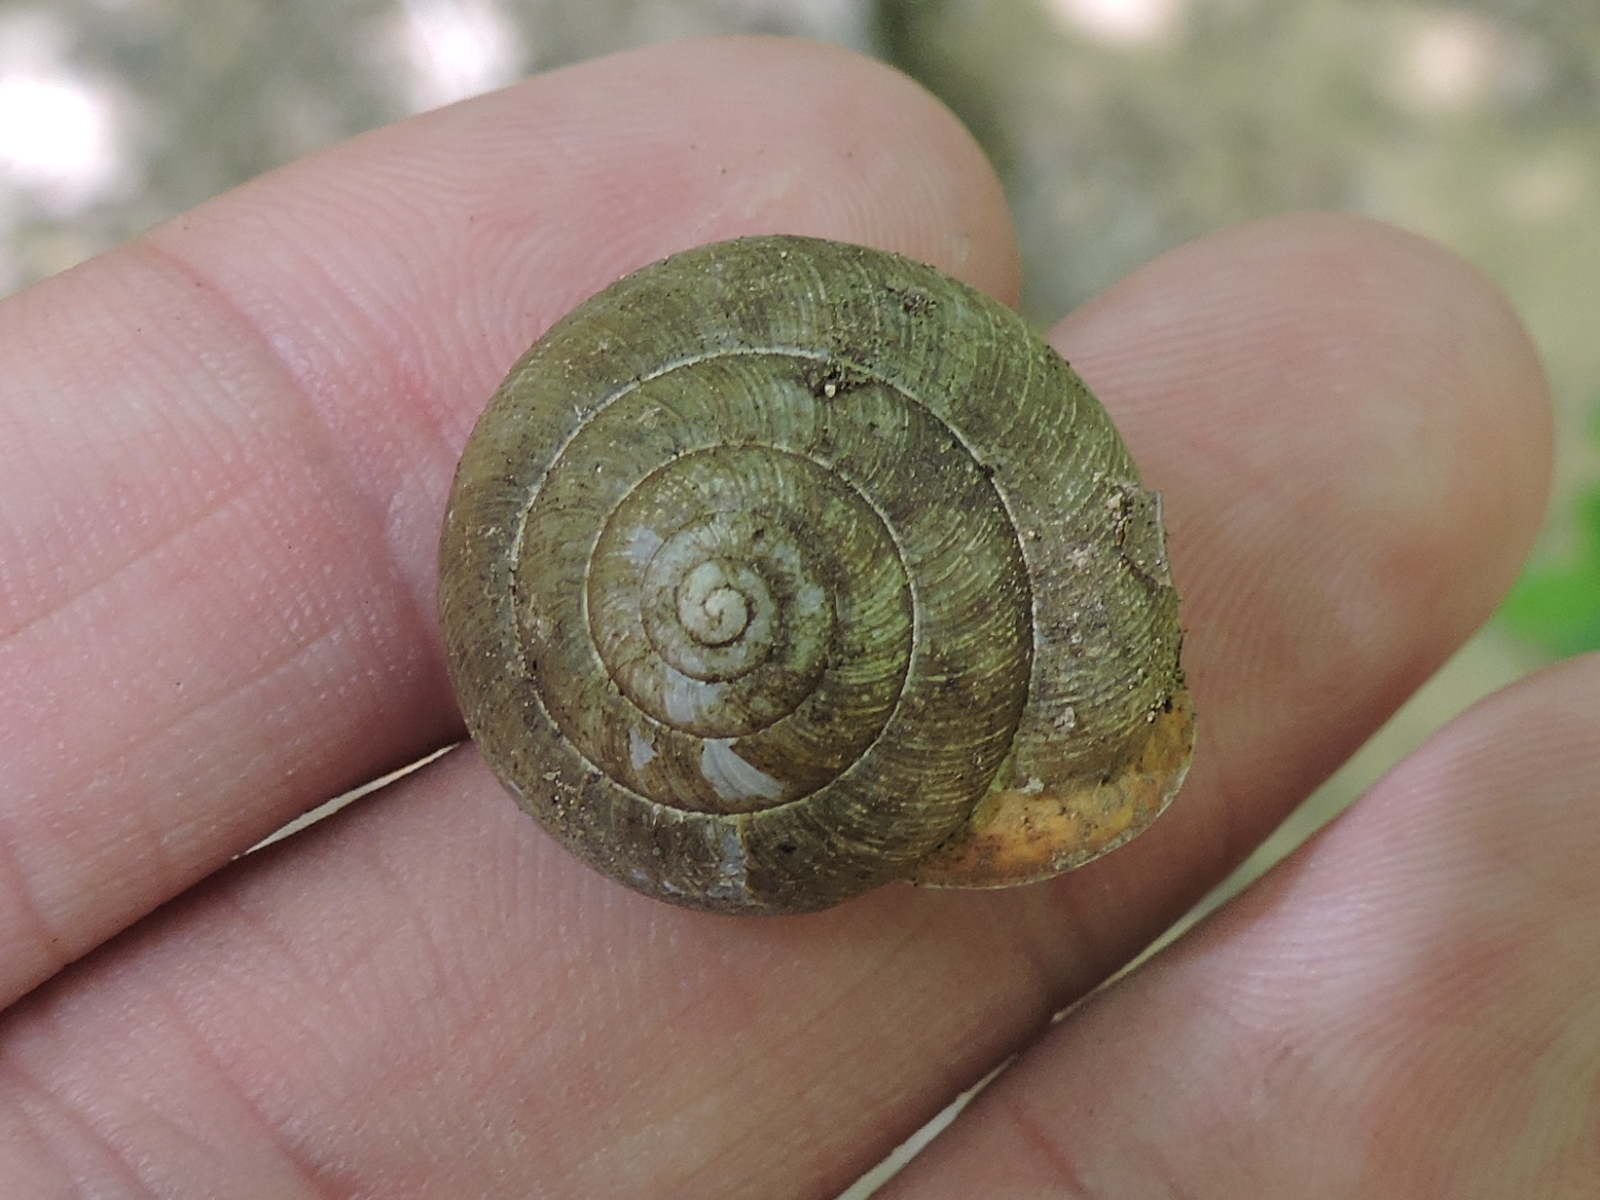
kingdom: Animalia
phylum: Mollusca
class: Gastropoda
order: Stylommatophora
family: Polygyridae
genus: Patera
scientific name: Patera roemeri
